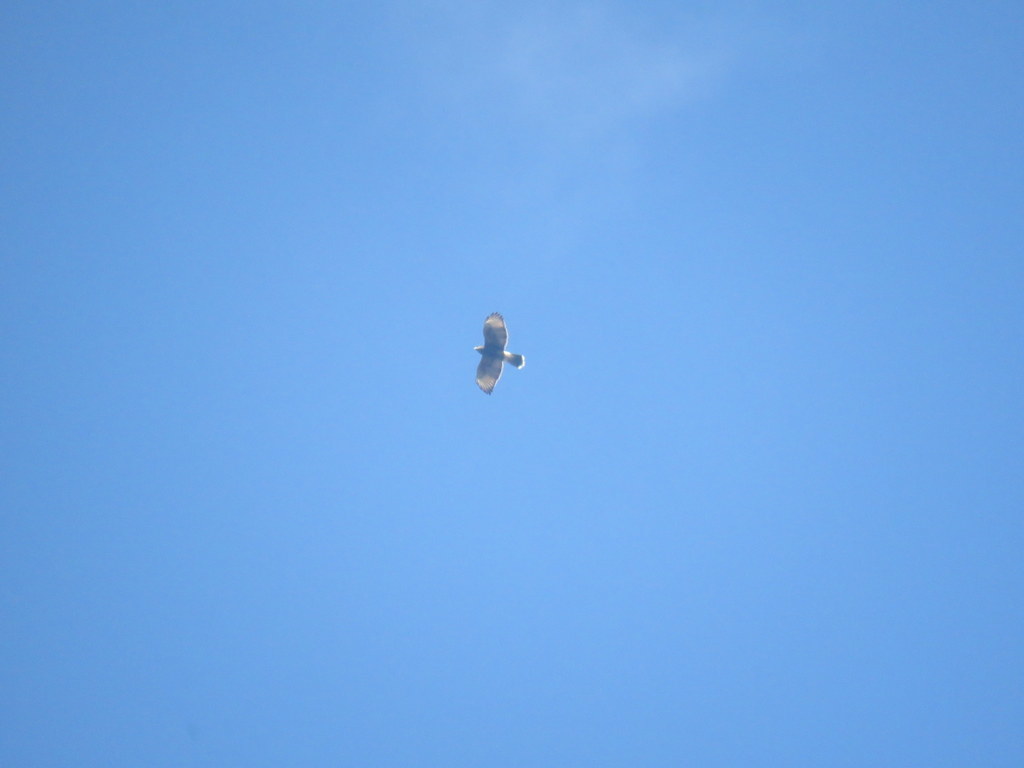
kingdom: Animalia
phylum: Chordata
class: Aves
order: Accipitriformes
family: Accipitridae
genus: Parabuteo
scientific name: Parabuteo unicinctus
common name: Harris's hawk
